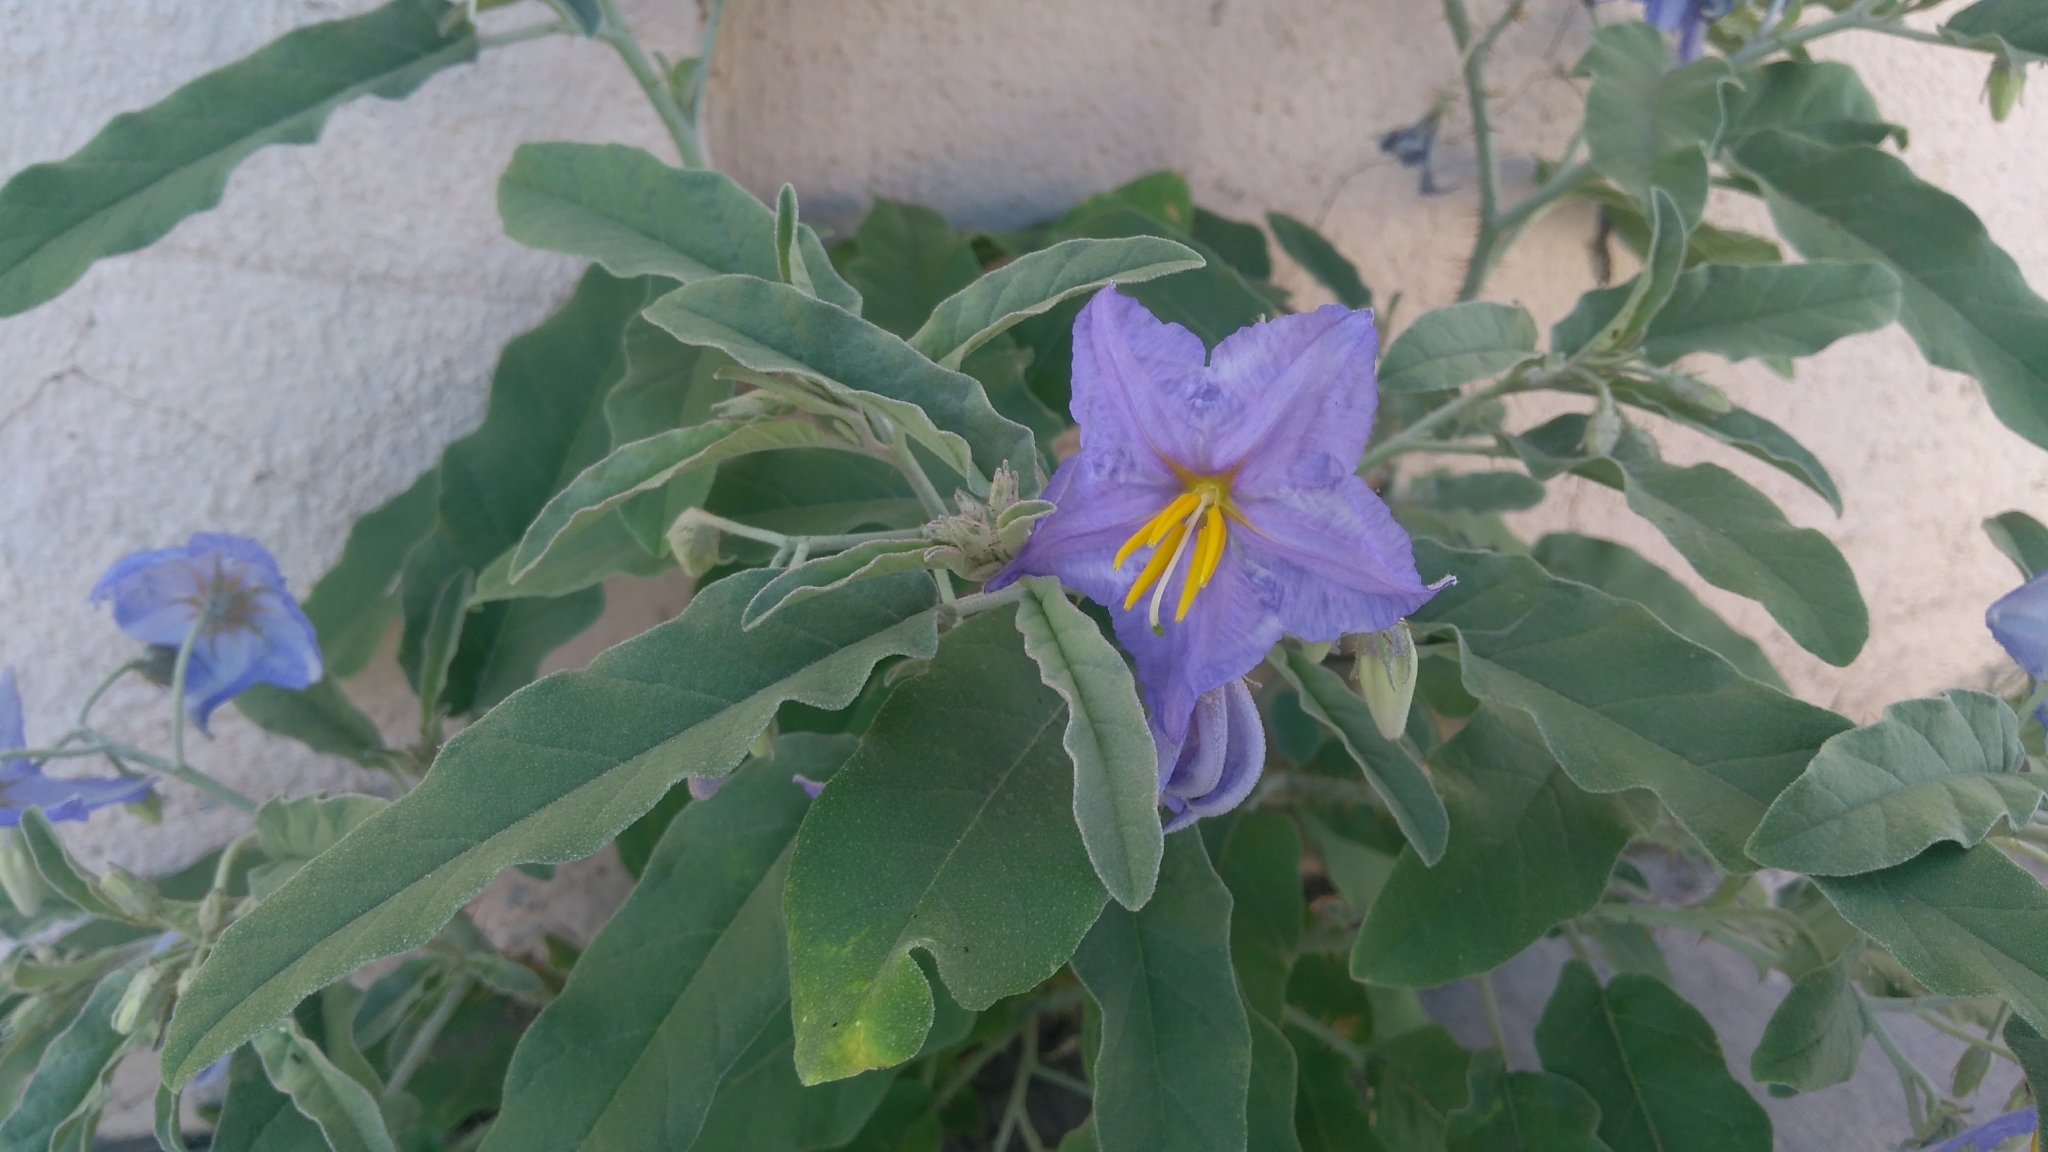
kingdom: Plantae
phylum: Tracheophyta
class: Magnoliopsida
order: Solanales
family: Solanaceae
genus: Solanum
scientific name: Solanum elaeagnifolium
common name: Silverleaf nightshade
